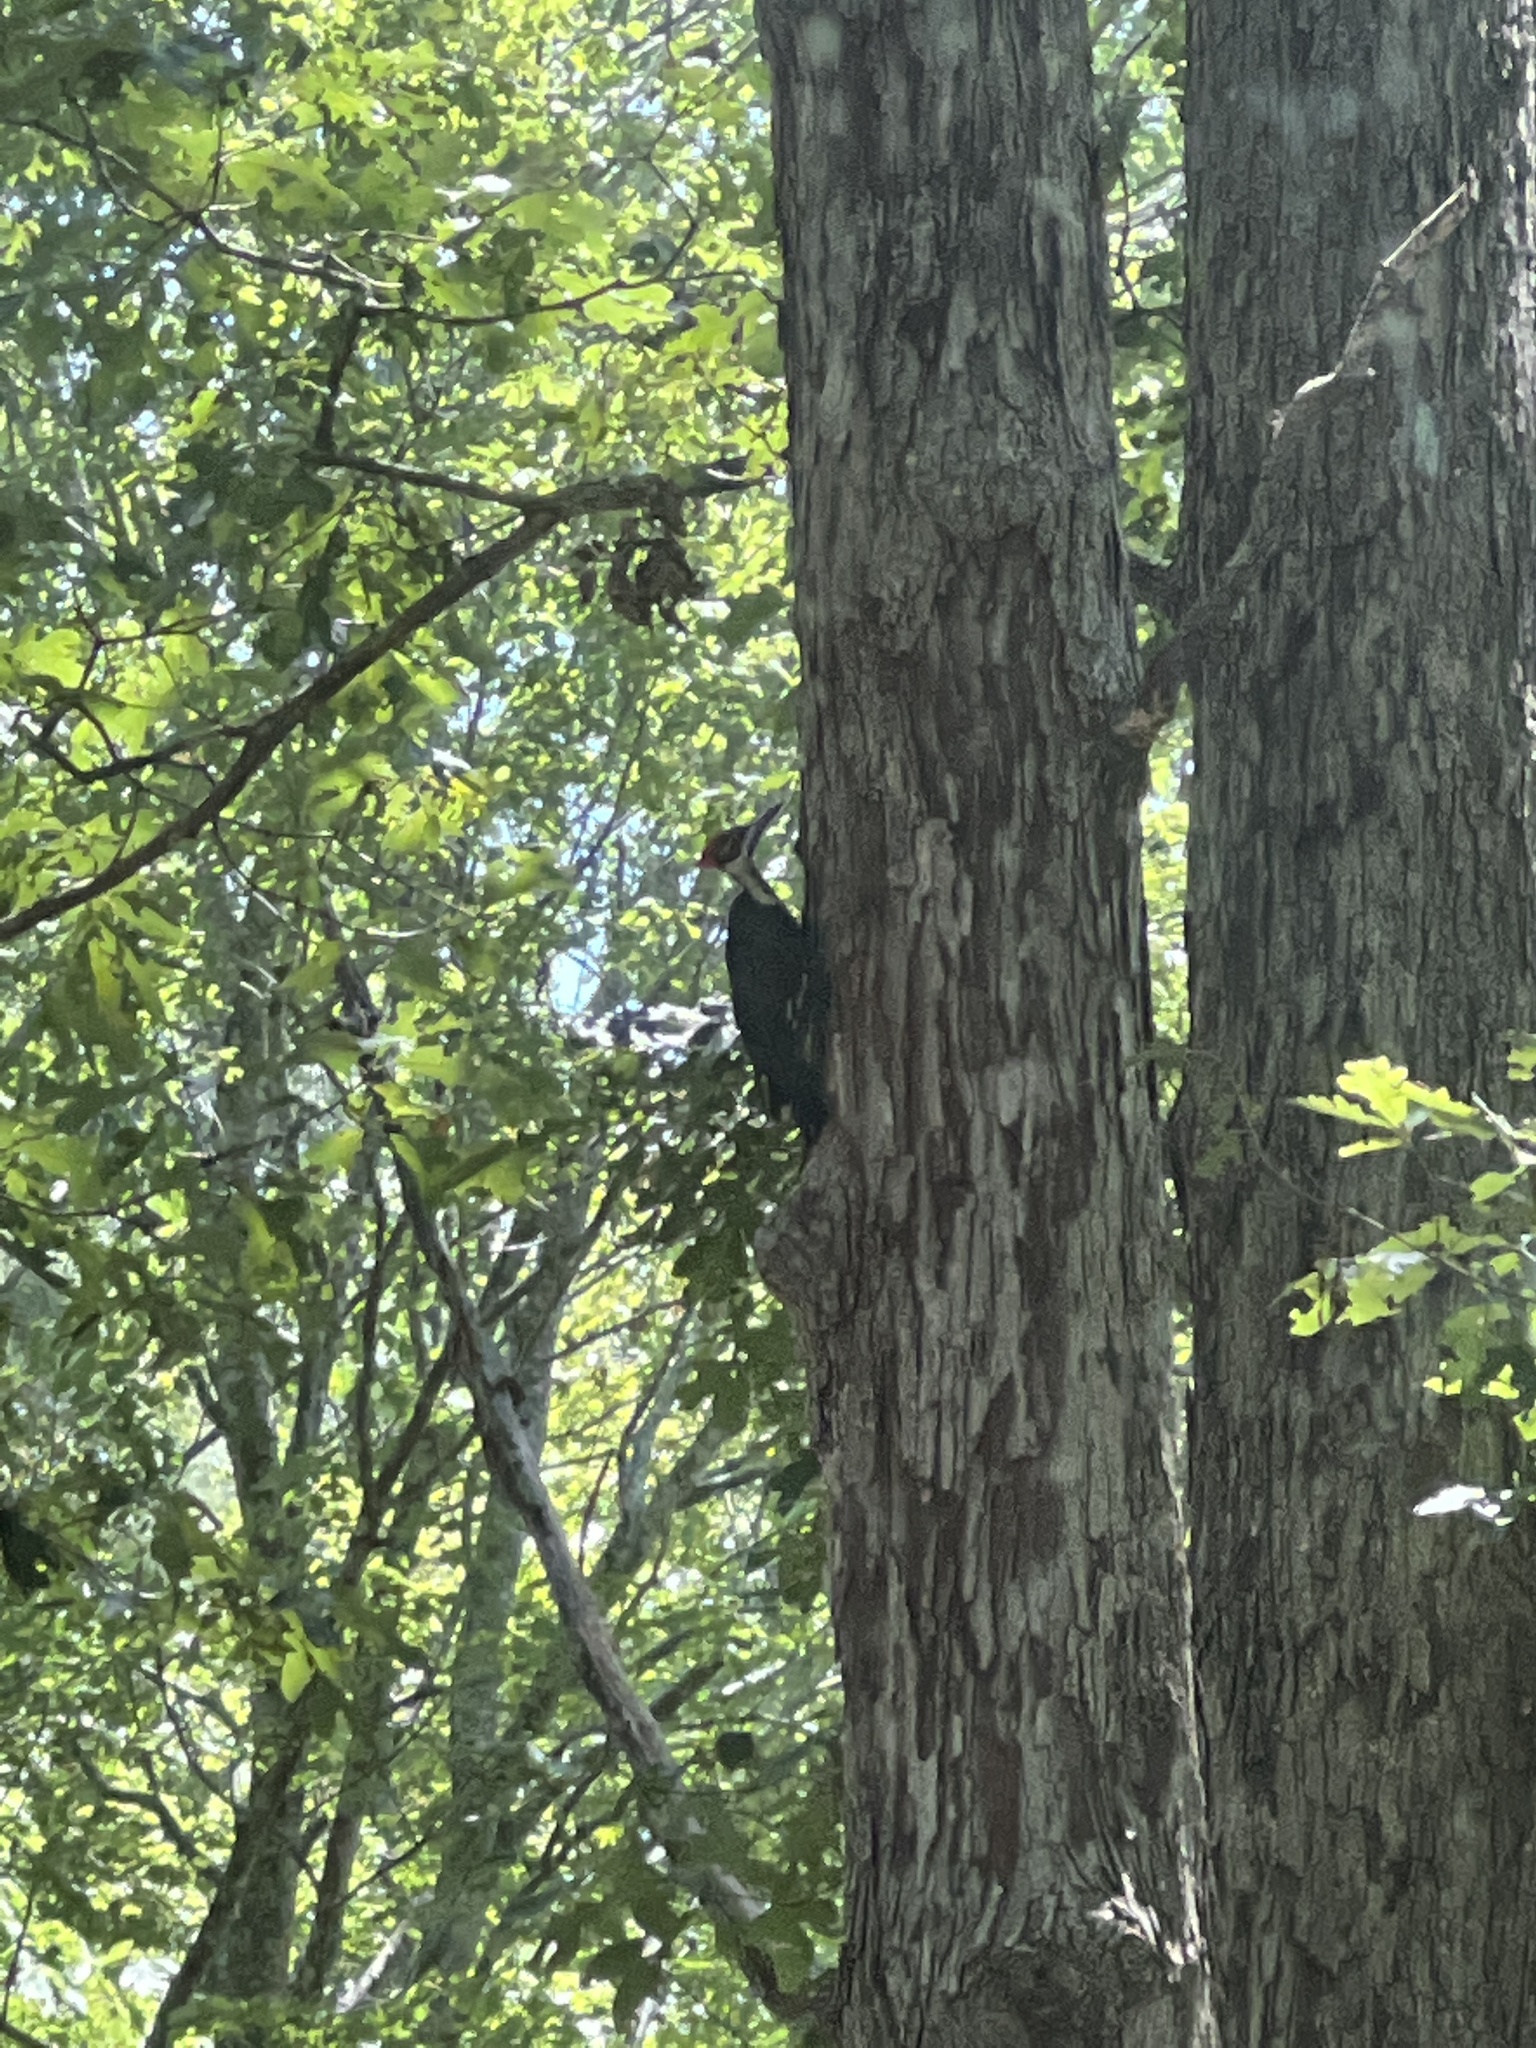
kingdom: Animalia
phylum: Chordata
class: Aves
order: Piciformes
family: Picidae
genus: Dryocopus
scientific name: Dryocopus pileatus
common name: Pileated woodpecker
